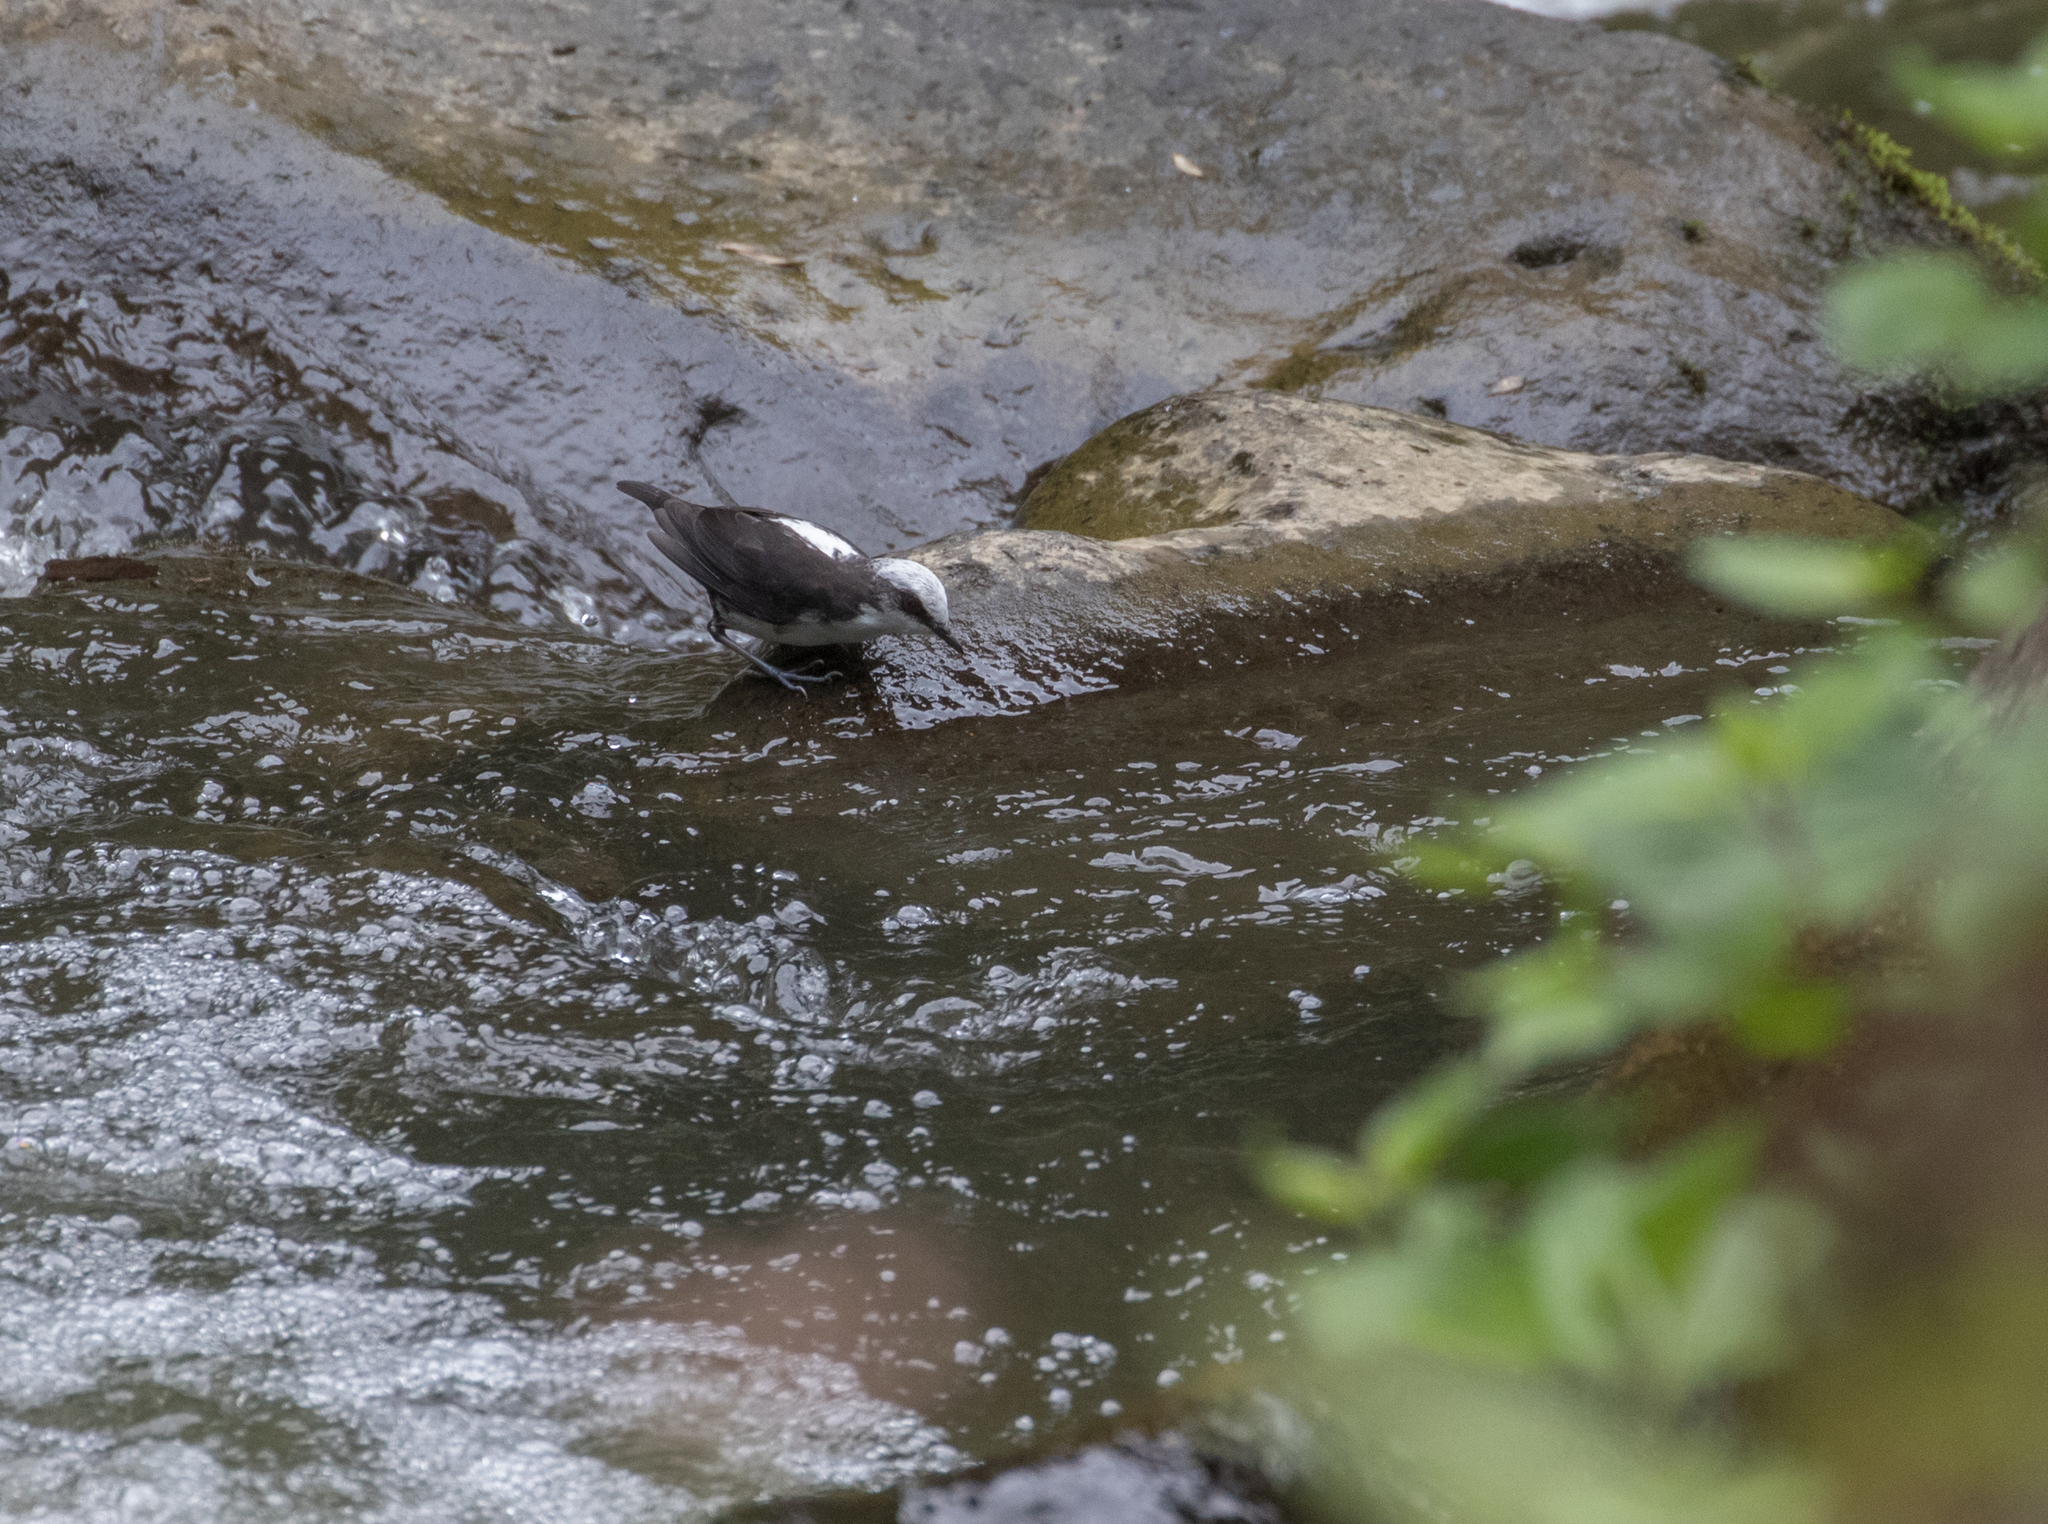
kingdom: Animalia
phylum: Chordata
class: Aves
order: Passeriformes
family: Cinclidae
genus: Cinclus
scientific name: Cinclus leucocephalus
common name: White-capped dipper
